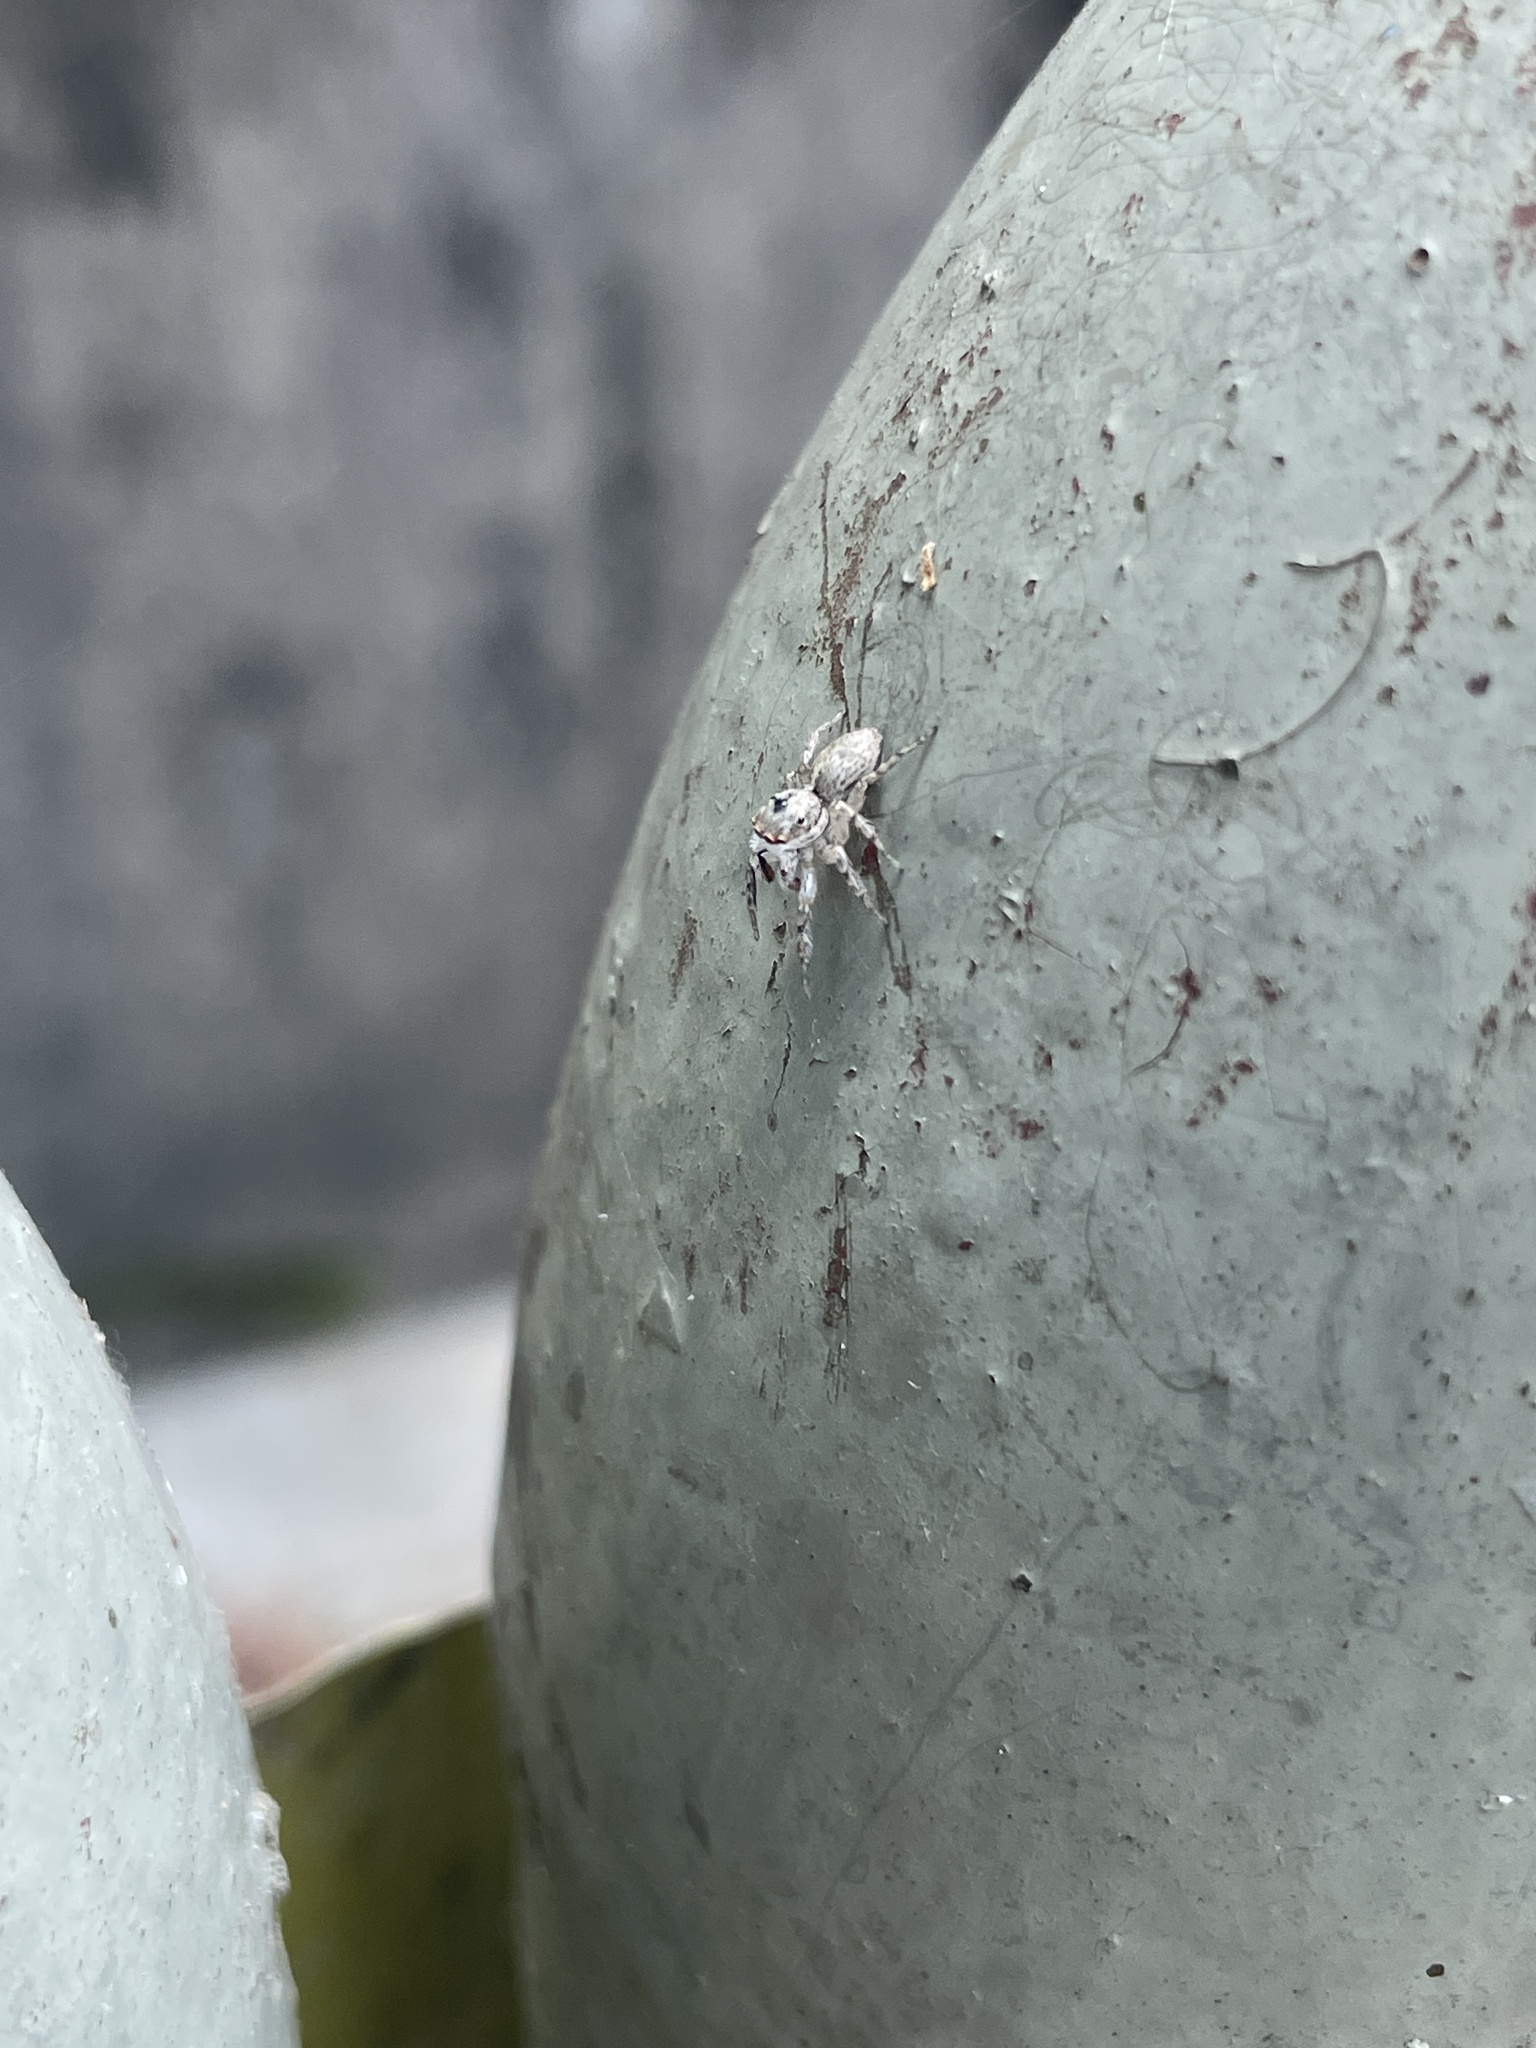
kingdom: Animalia
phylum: Arthropoda
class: Arachnida
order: Araneae
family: Salticidae
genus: Cytaea
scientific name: Cytaea maoming
